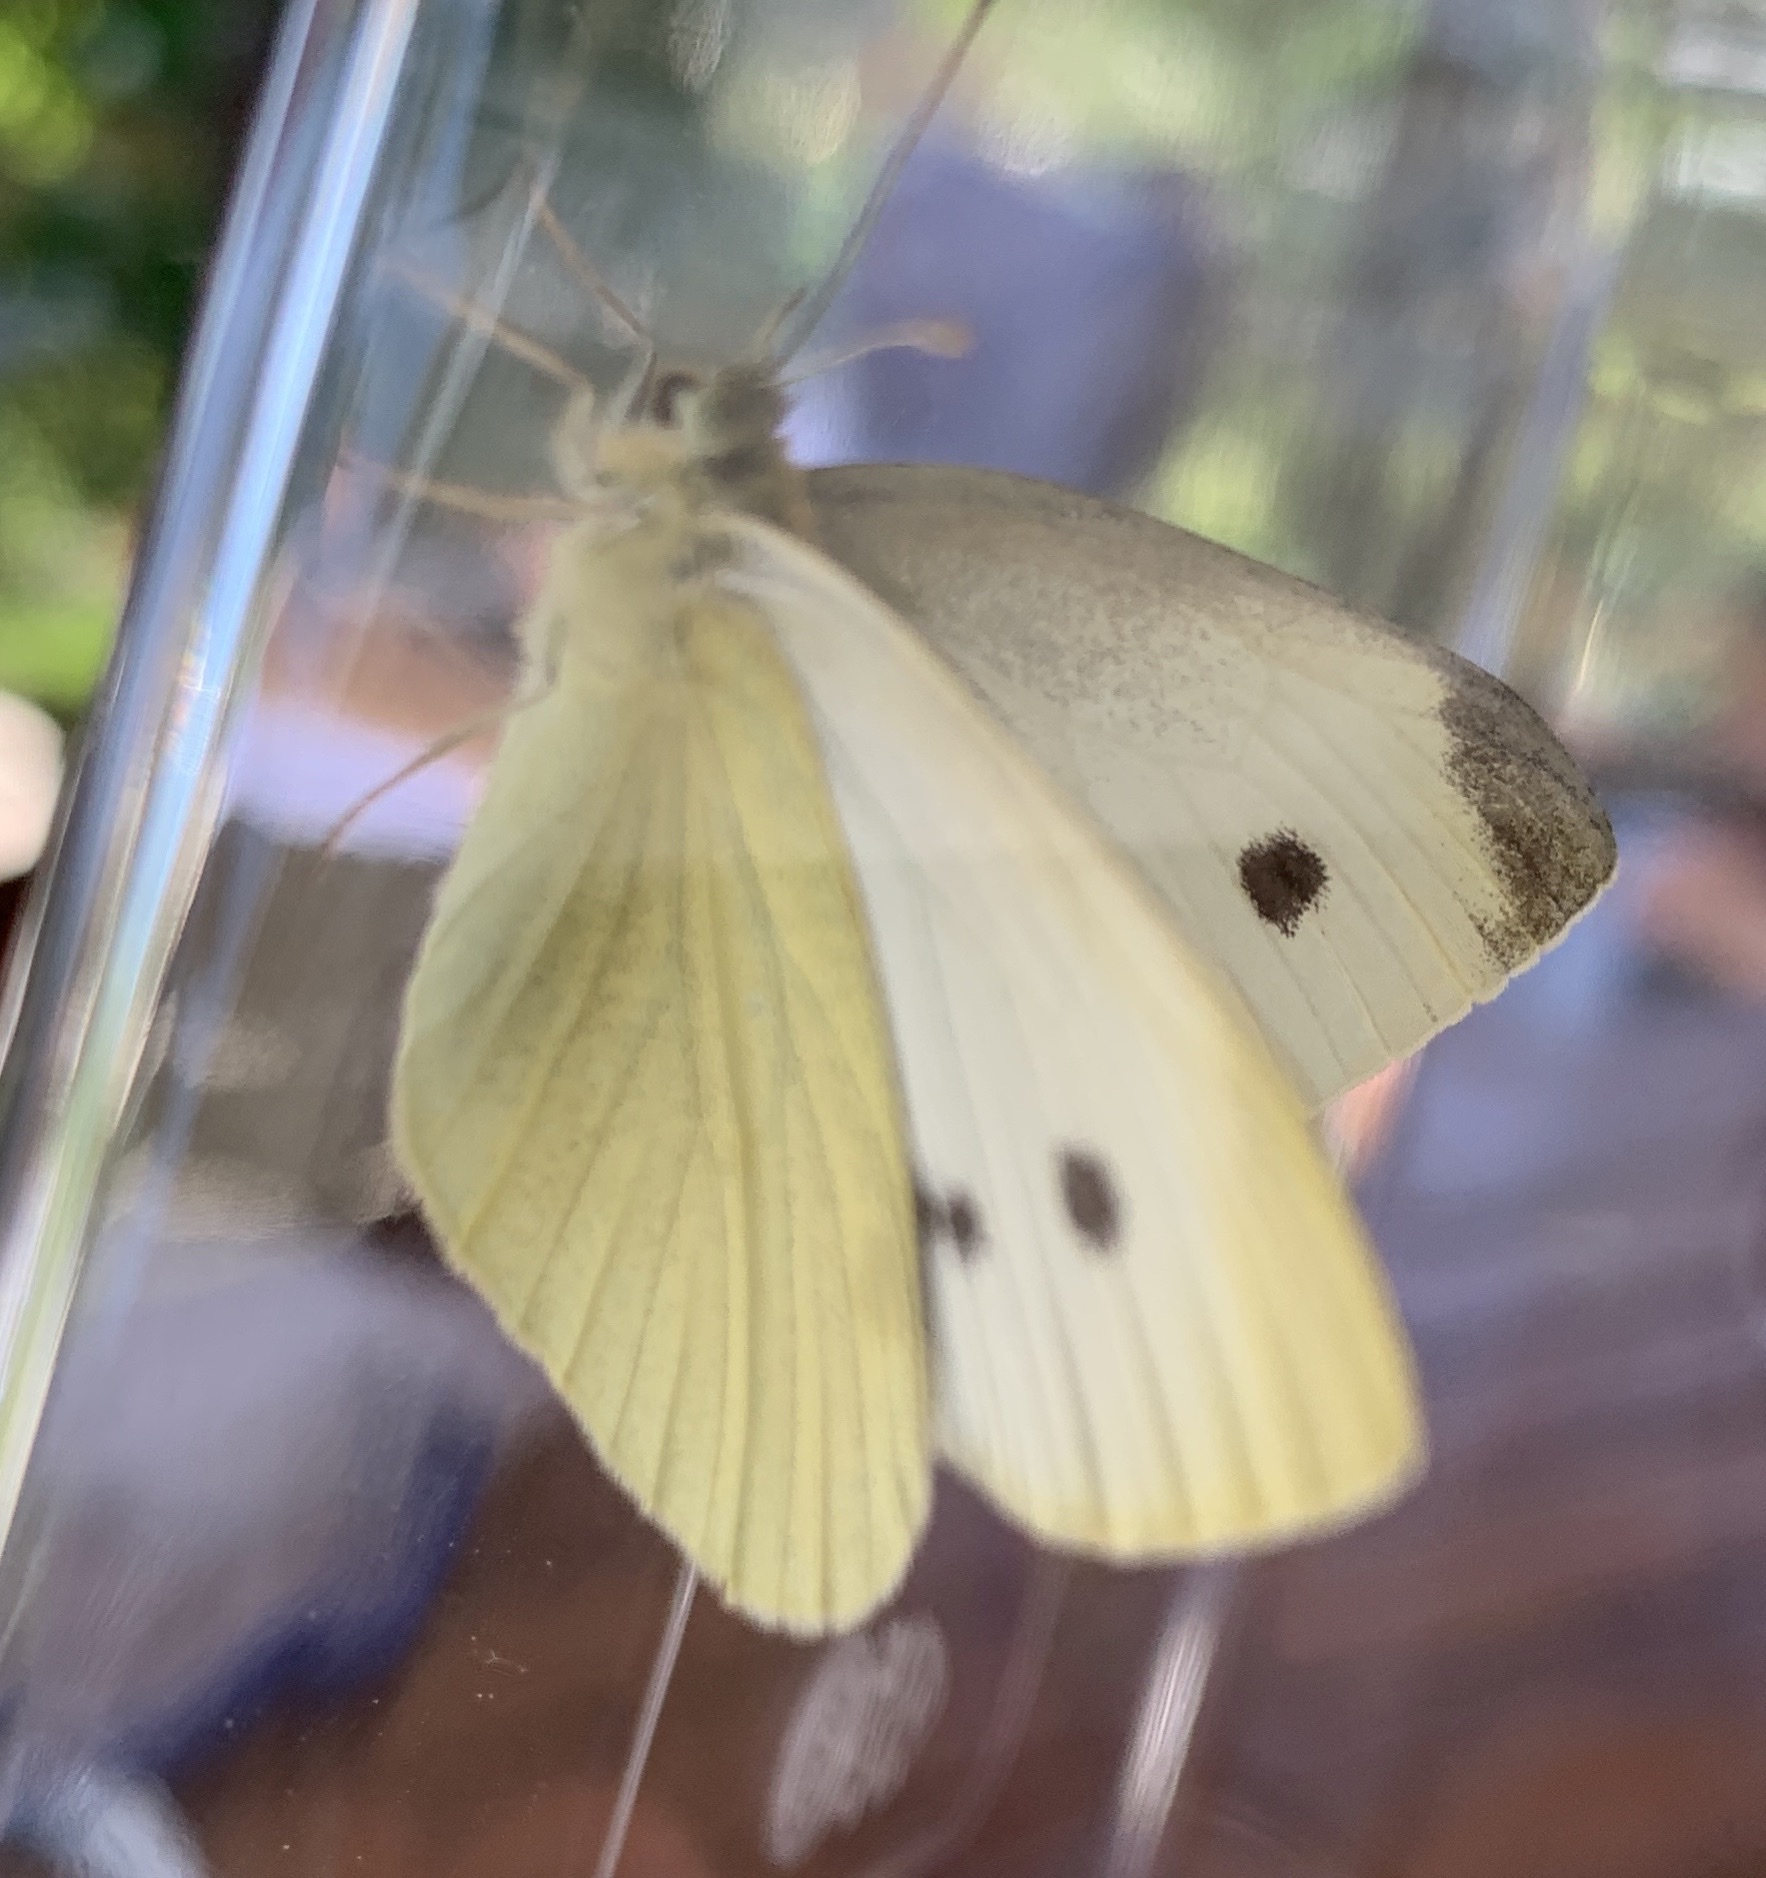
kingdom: Animalia
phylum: Arthropoda
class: Insecta
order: Lepidoptera
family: Pieridae
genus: Pieris
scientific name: Pieris rapae
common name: Small white
